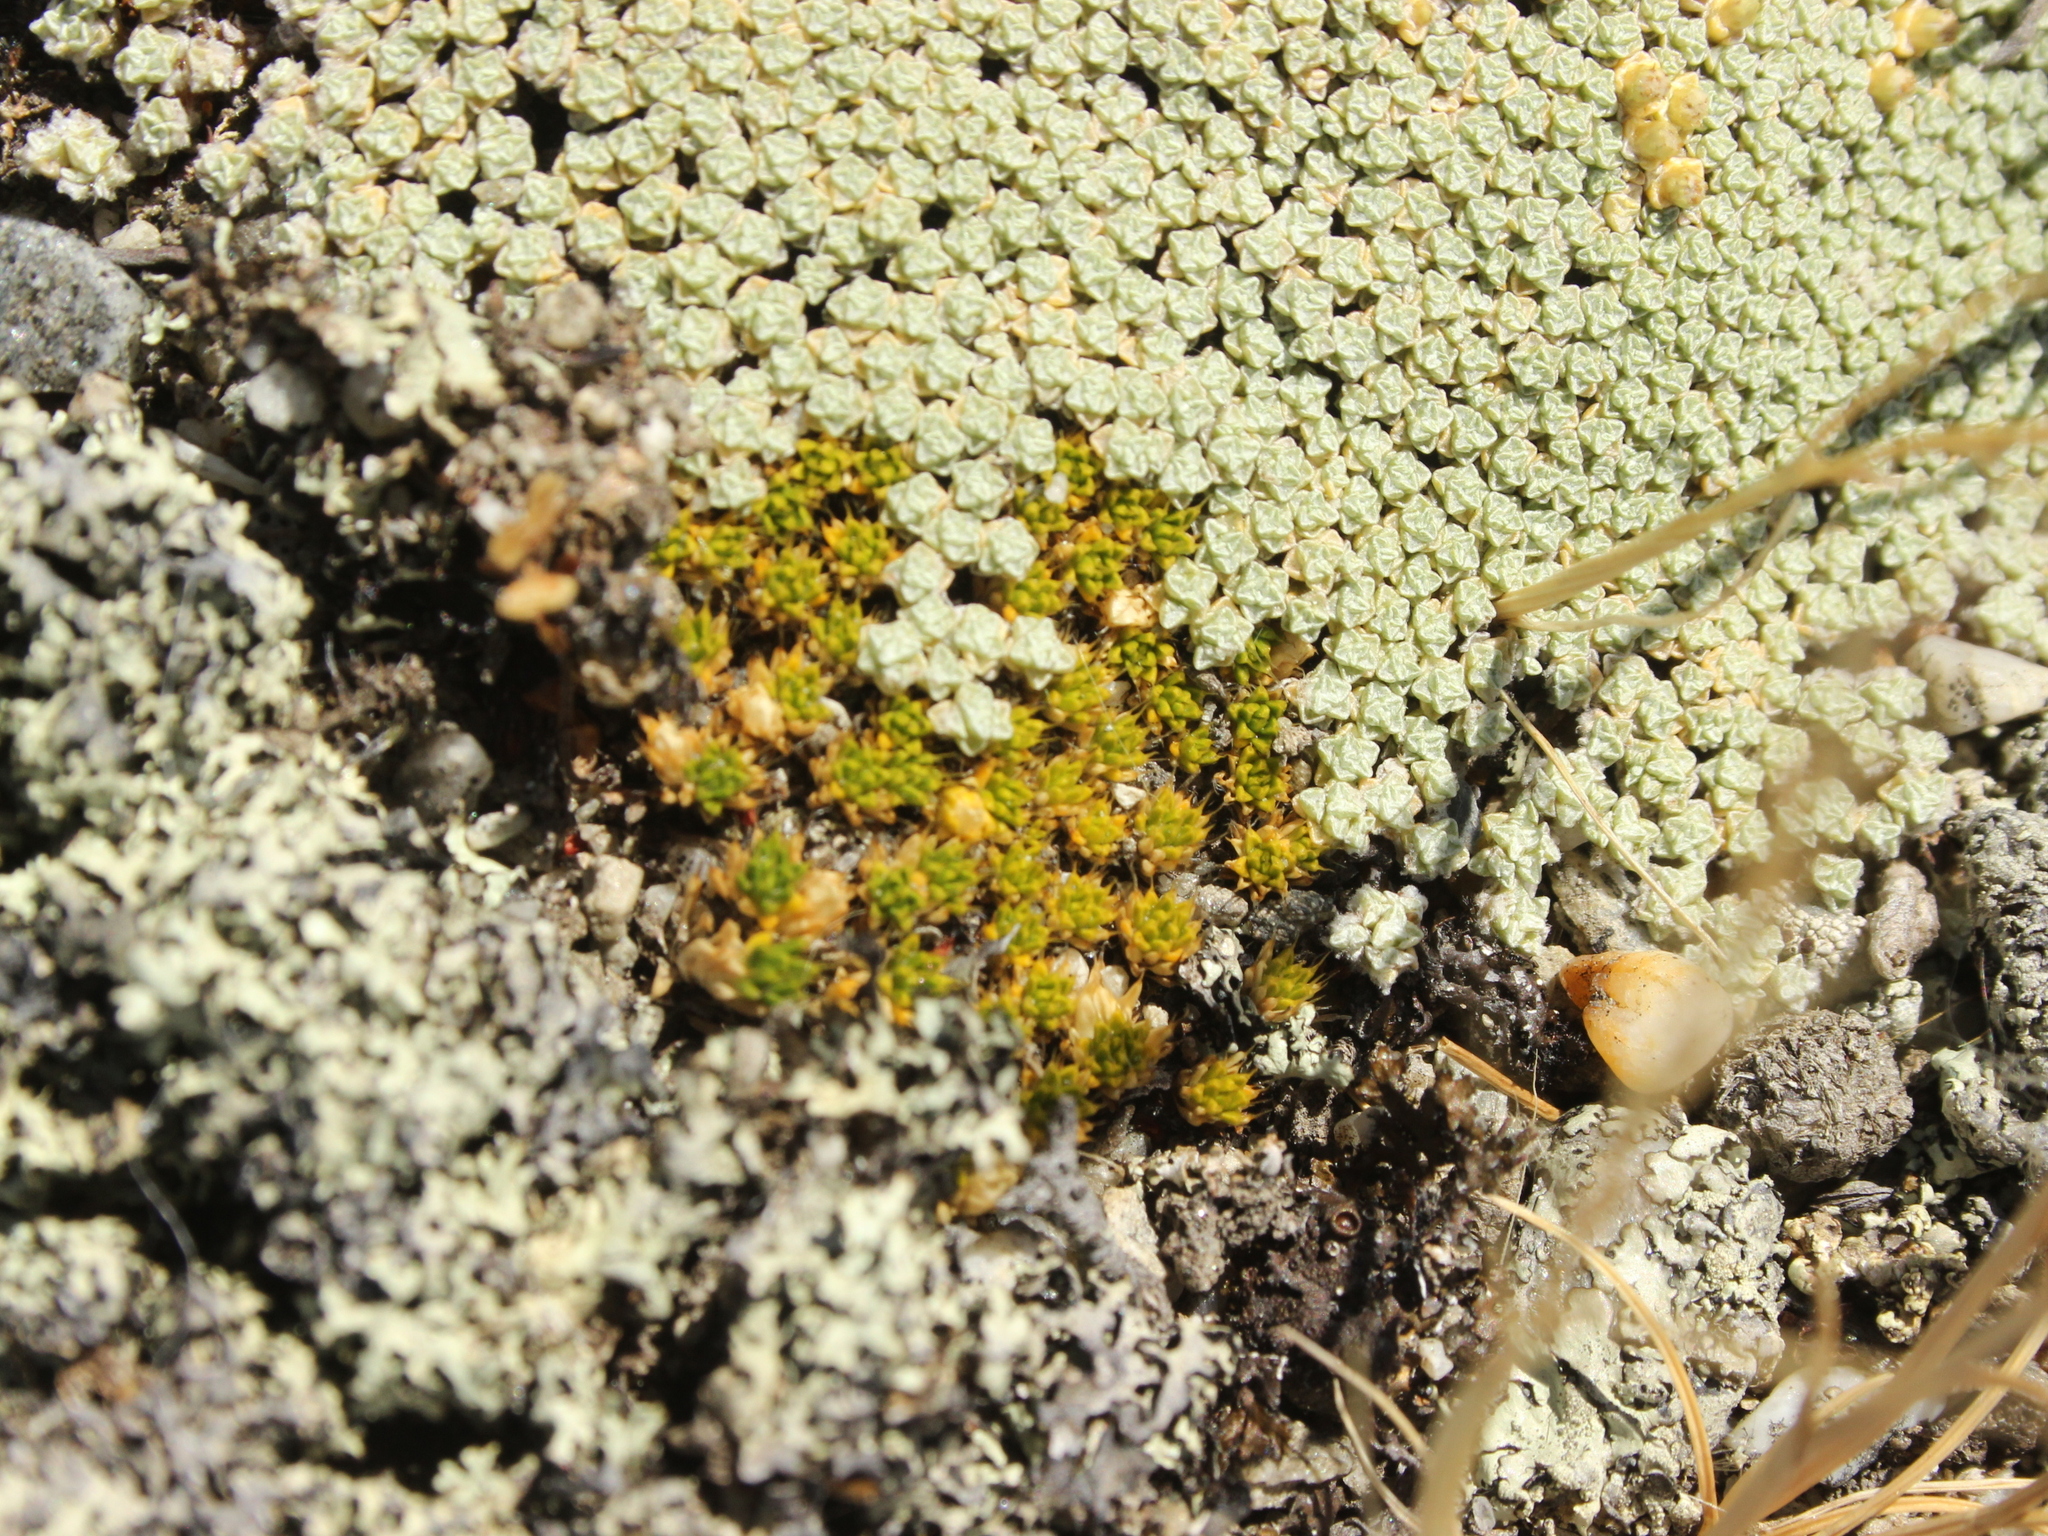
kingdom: Plantae
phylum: Tracheophyta
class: Magnoliopsida
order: Caryophyllales
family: Caryophyllaceae
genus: Colobanthus
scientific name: Colobanthus brevisepalus
